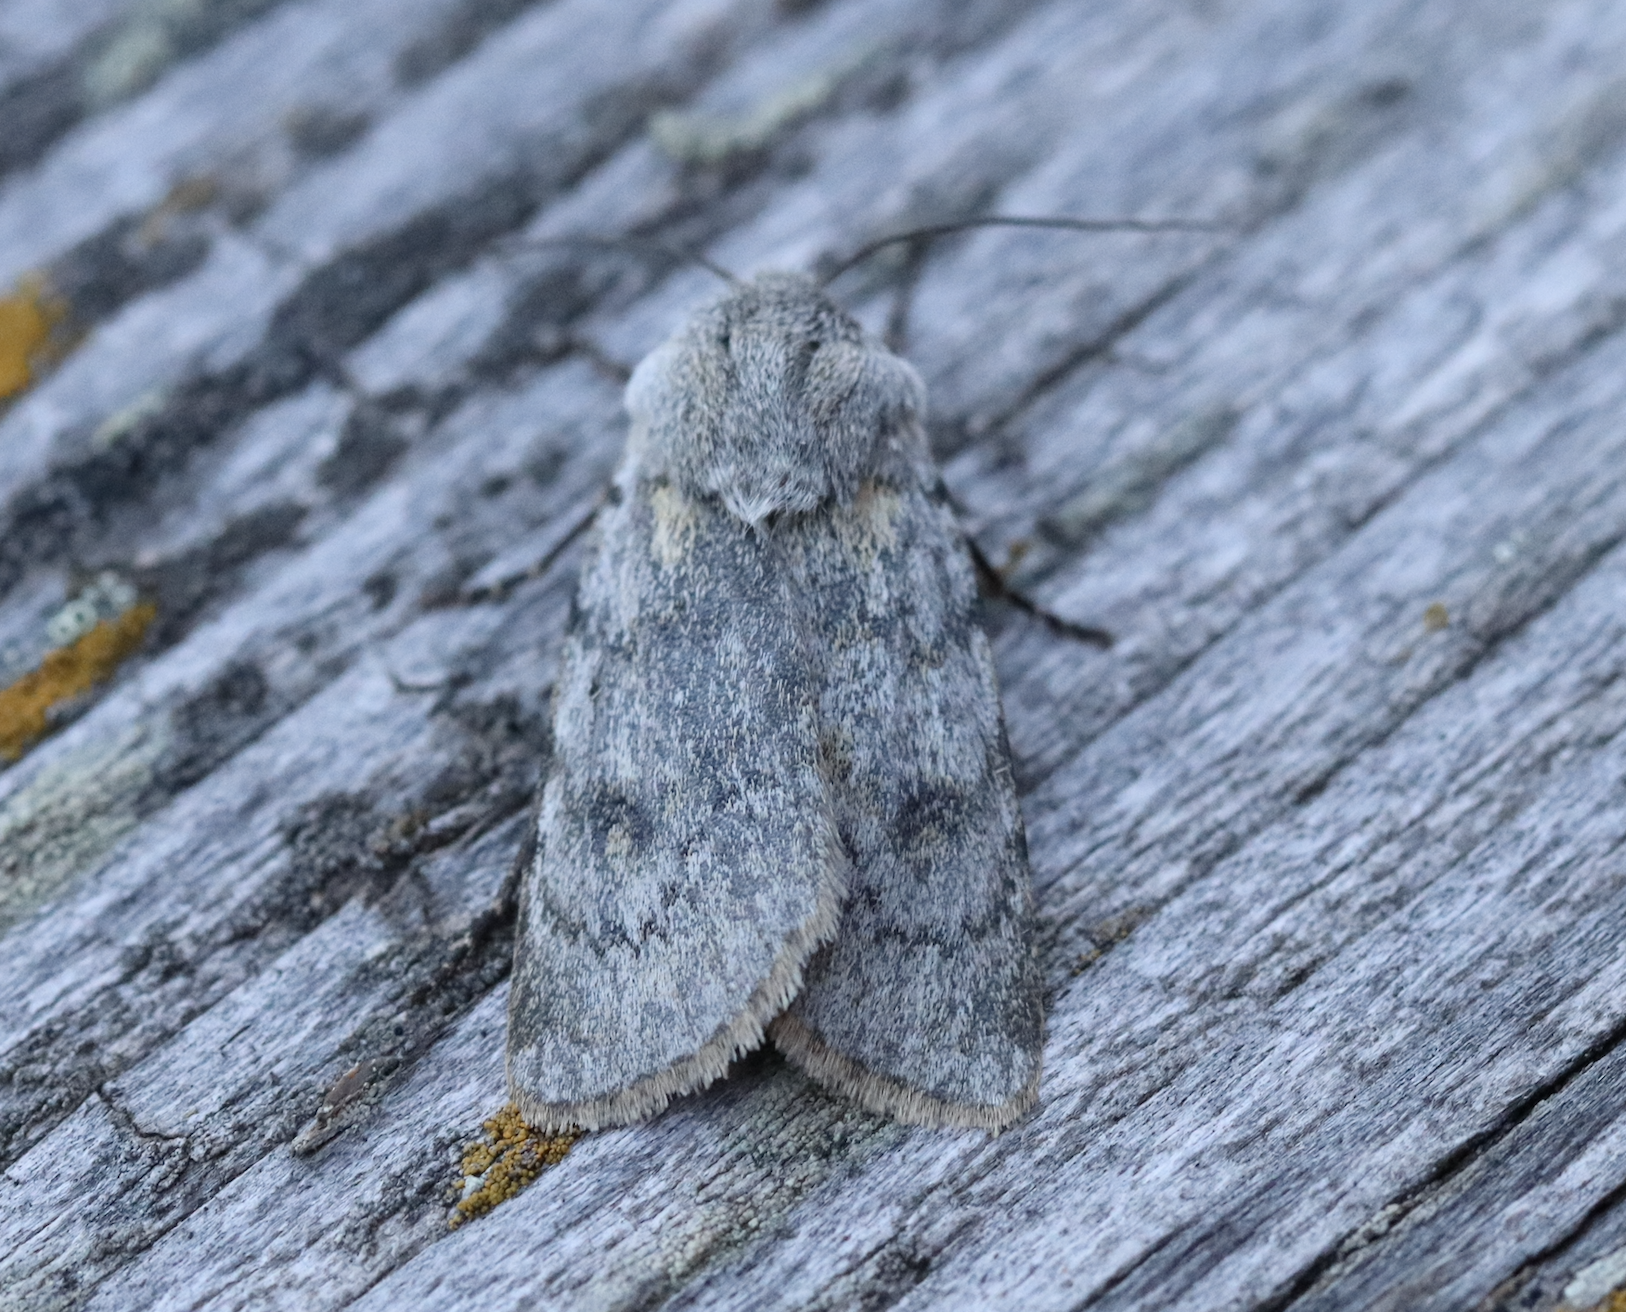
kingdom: Animalia
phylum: Arthropoda
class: Insecta
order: Lepidoptera
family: Noctuidae
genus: Agrotis
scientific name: Agrotis simplonia
